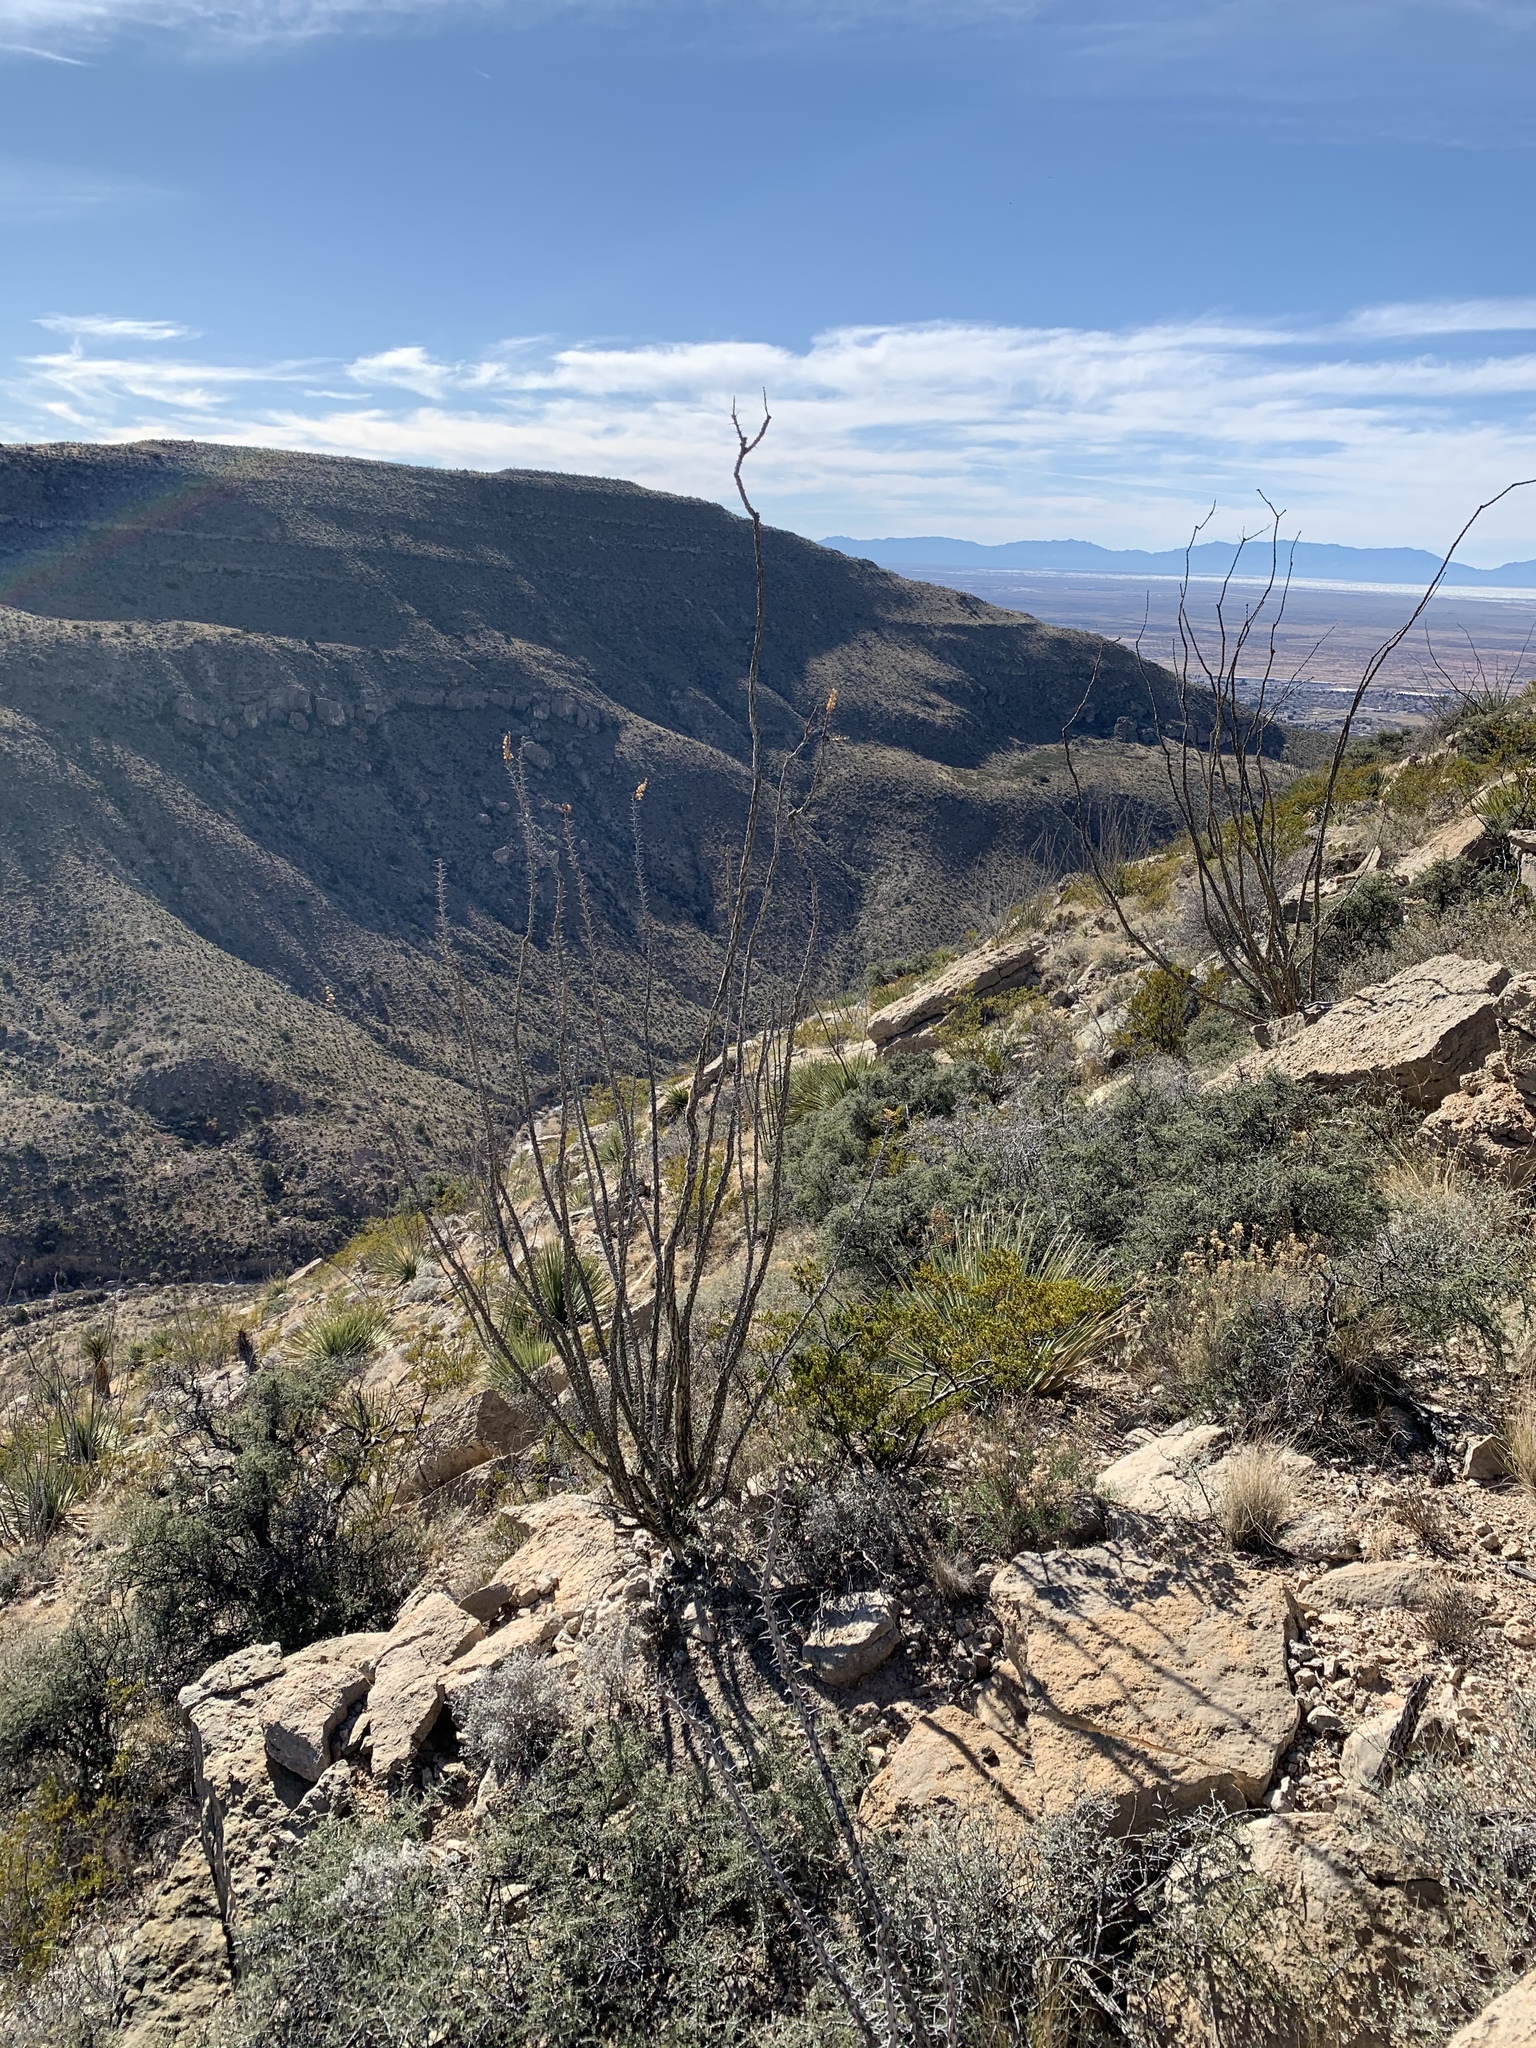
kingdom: Plantae
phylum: Tracheophyta
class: Magnoliopsida
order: Ericales
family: Fouquieriaceae
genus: Fouquieria
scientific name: Fouquieria splendens
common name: Vine-cactus
